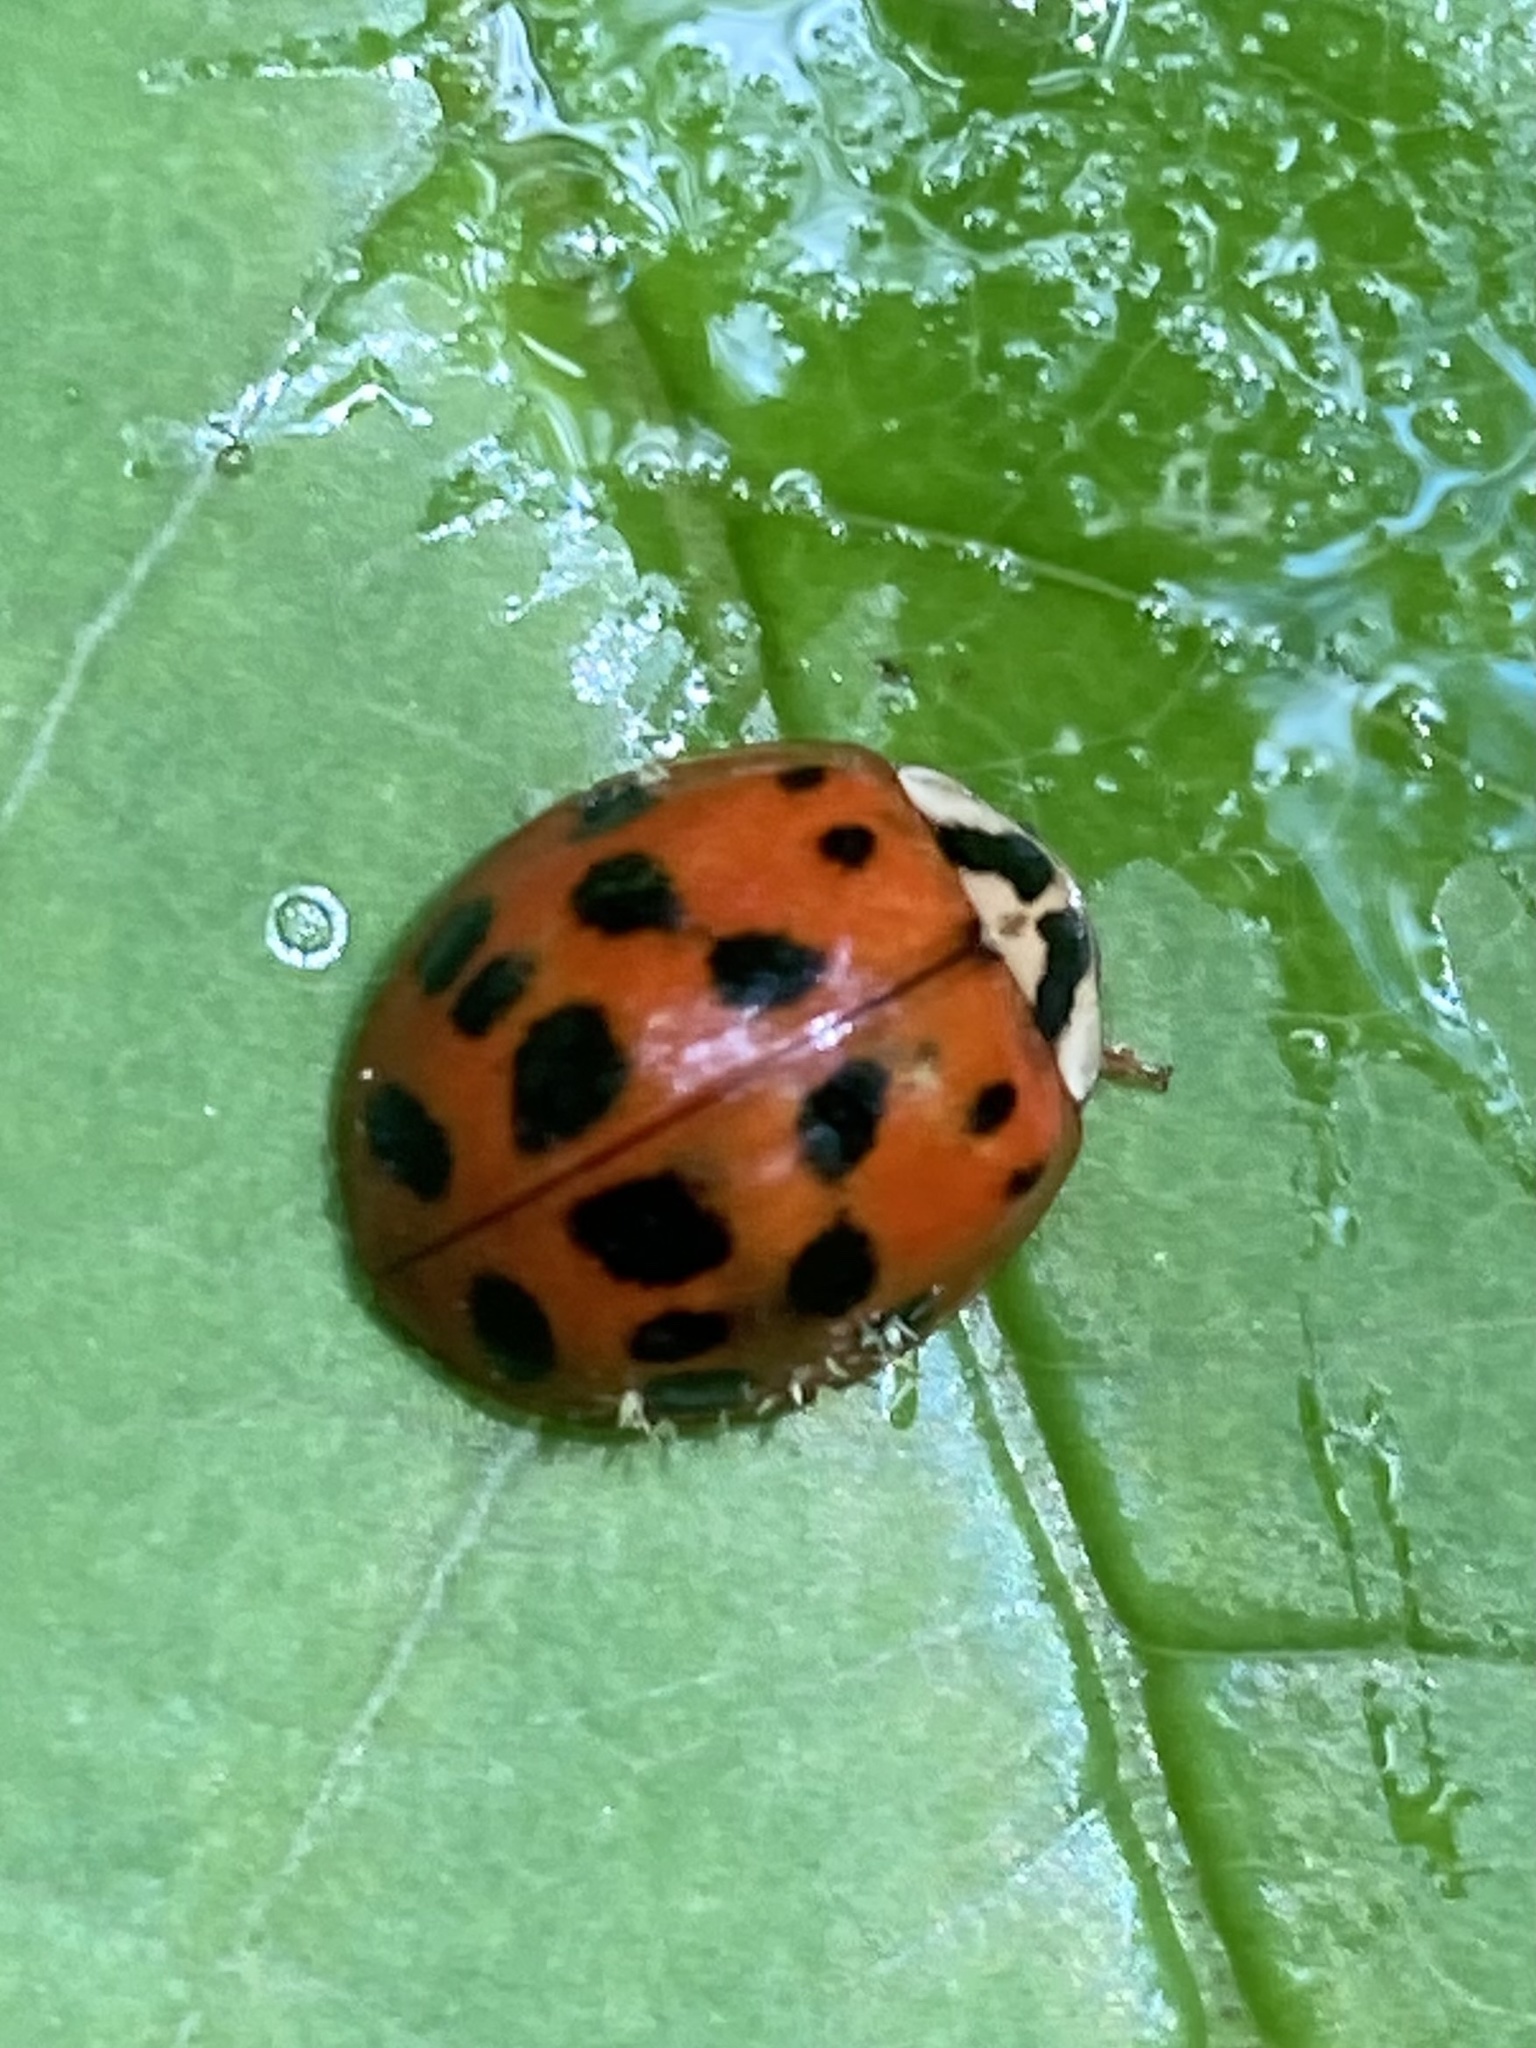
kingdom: Animalia
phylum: Arthropoda
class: Insecta
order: Coleoptera
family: Coccinellidae
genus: Harmonia
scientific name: Harmonia axyridis
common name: Harlequin ladybird
